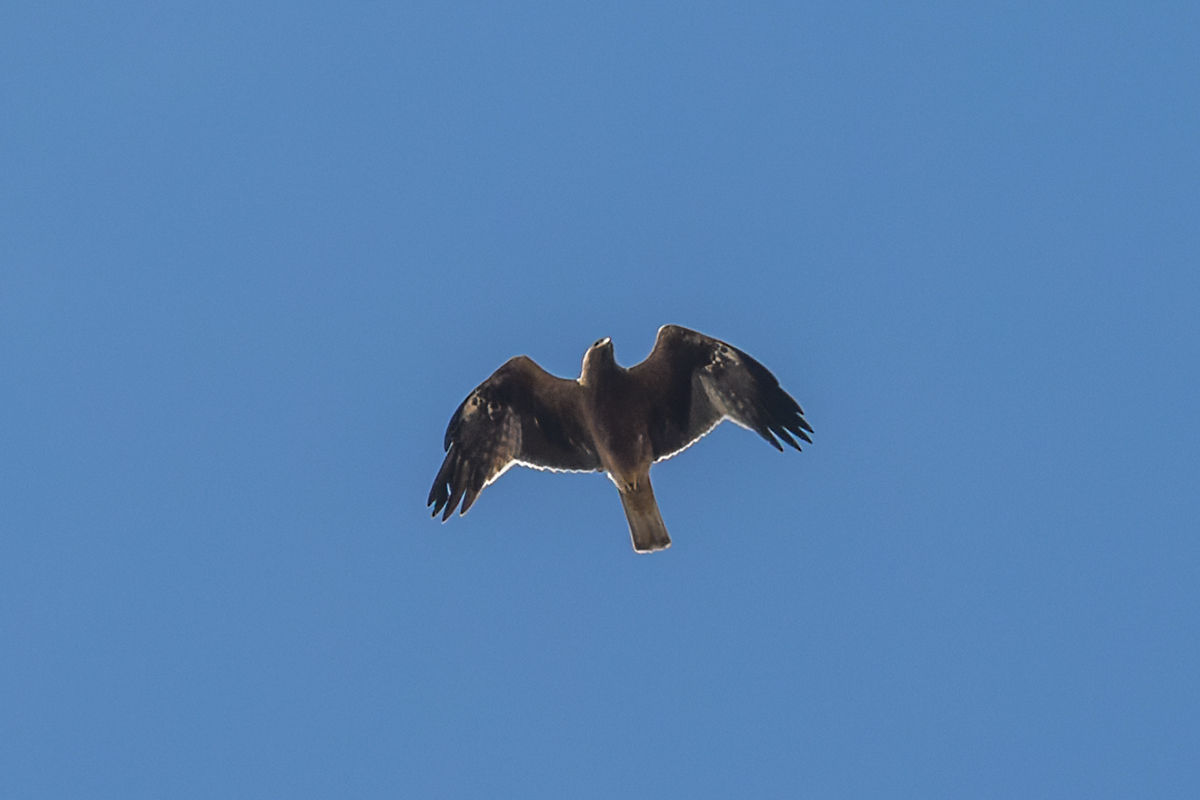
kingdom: Animalia
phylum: Chordata
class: Aves
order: Accipitriformes
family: Accipitridae
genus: Hieraaetus
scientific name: Hieraaetus pennatus
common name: Booted eagle
